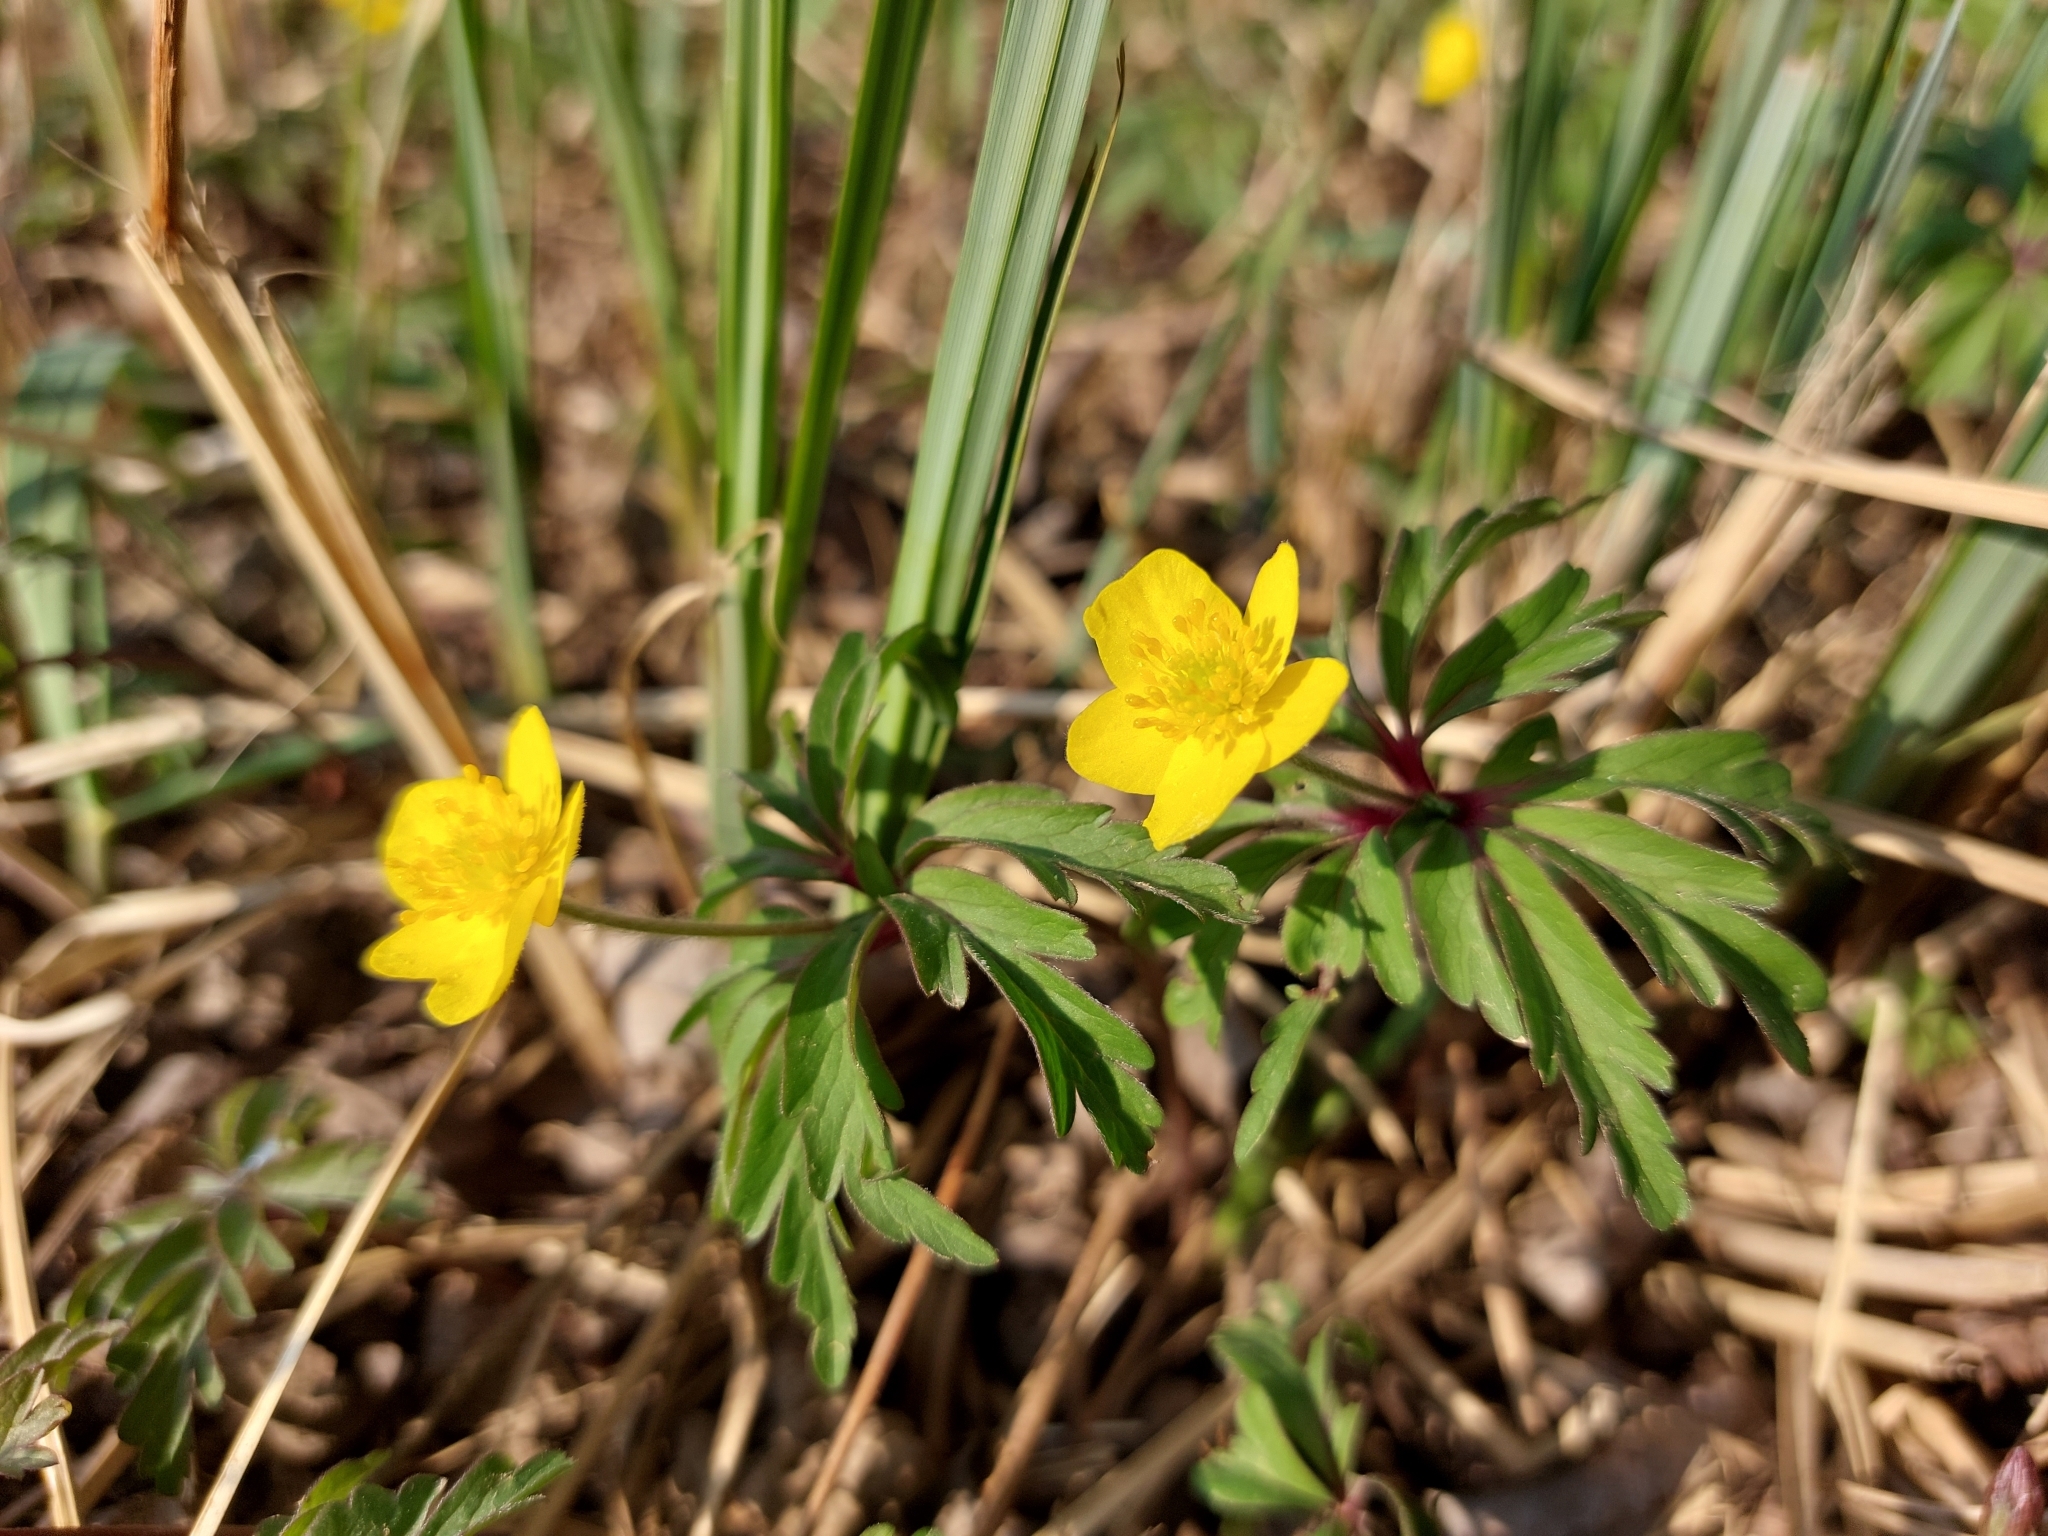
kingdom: Plantae
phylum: Tracheophyta
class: Magnoliopsida
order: Ranunculales
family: Ranunculaceae
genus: Anemone
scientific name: Anemone ranunculoides
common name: Yellow anemone
